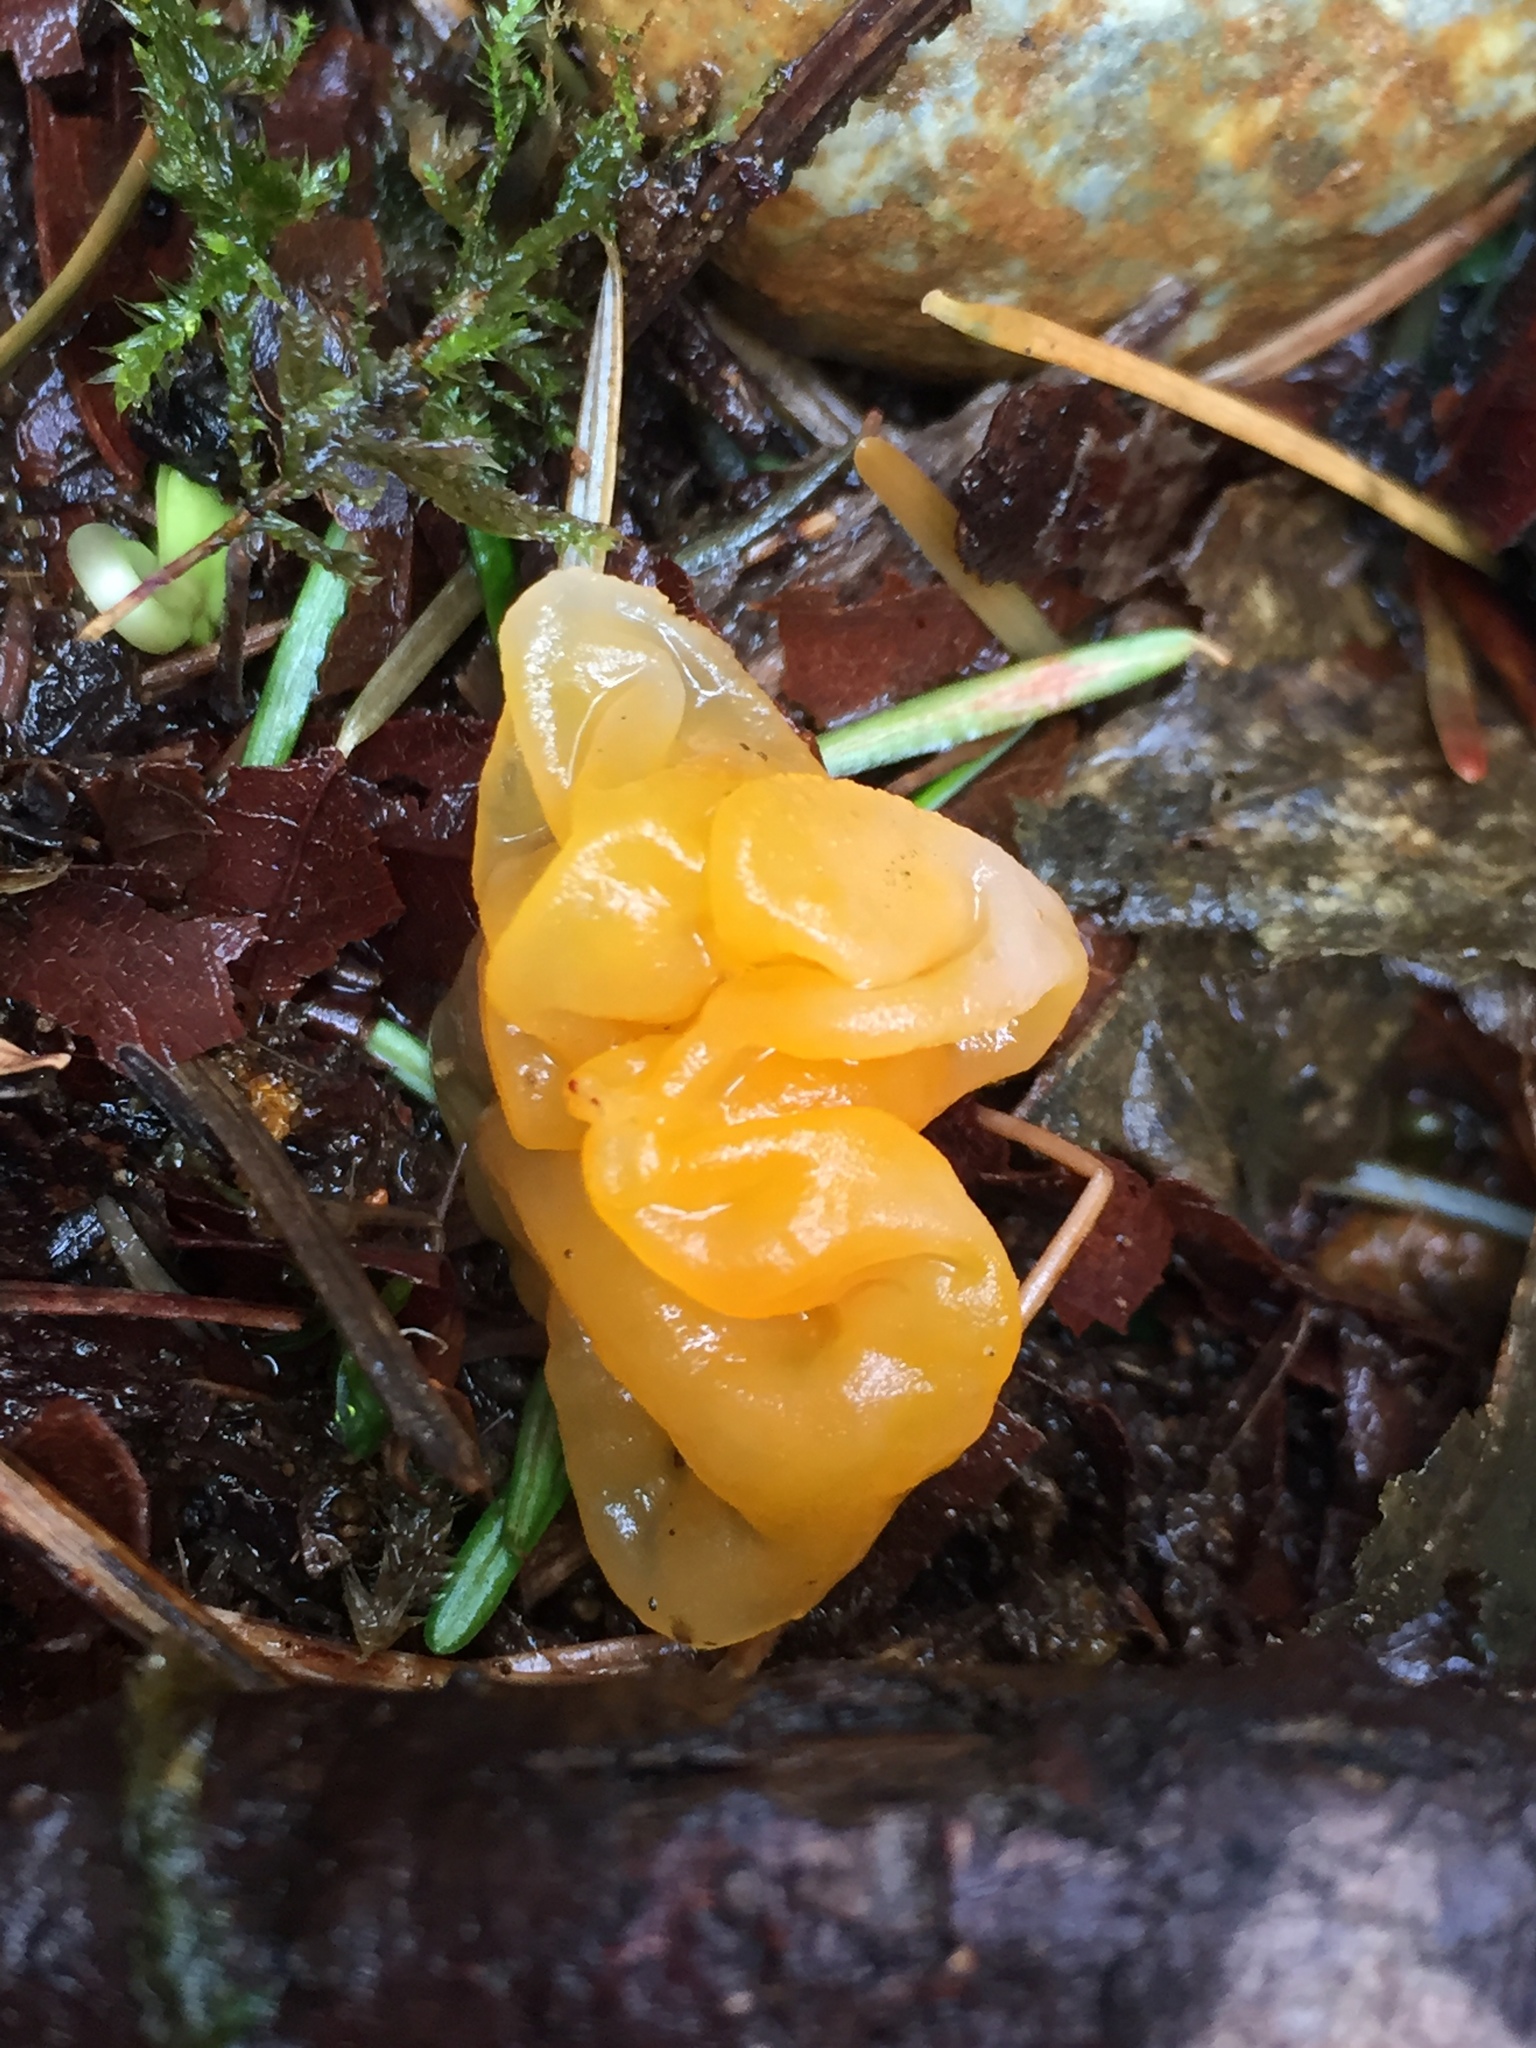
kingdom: Fungi
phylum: Basidiomycota
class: Tremellomycetes
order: Tremellales
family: Tremellaceae
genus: Tremella
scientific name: Tremella mesenterica
